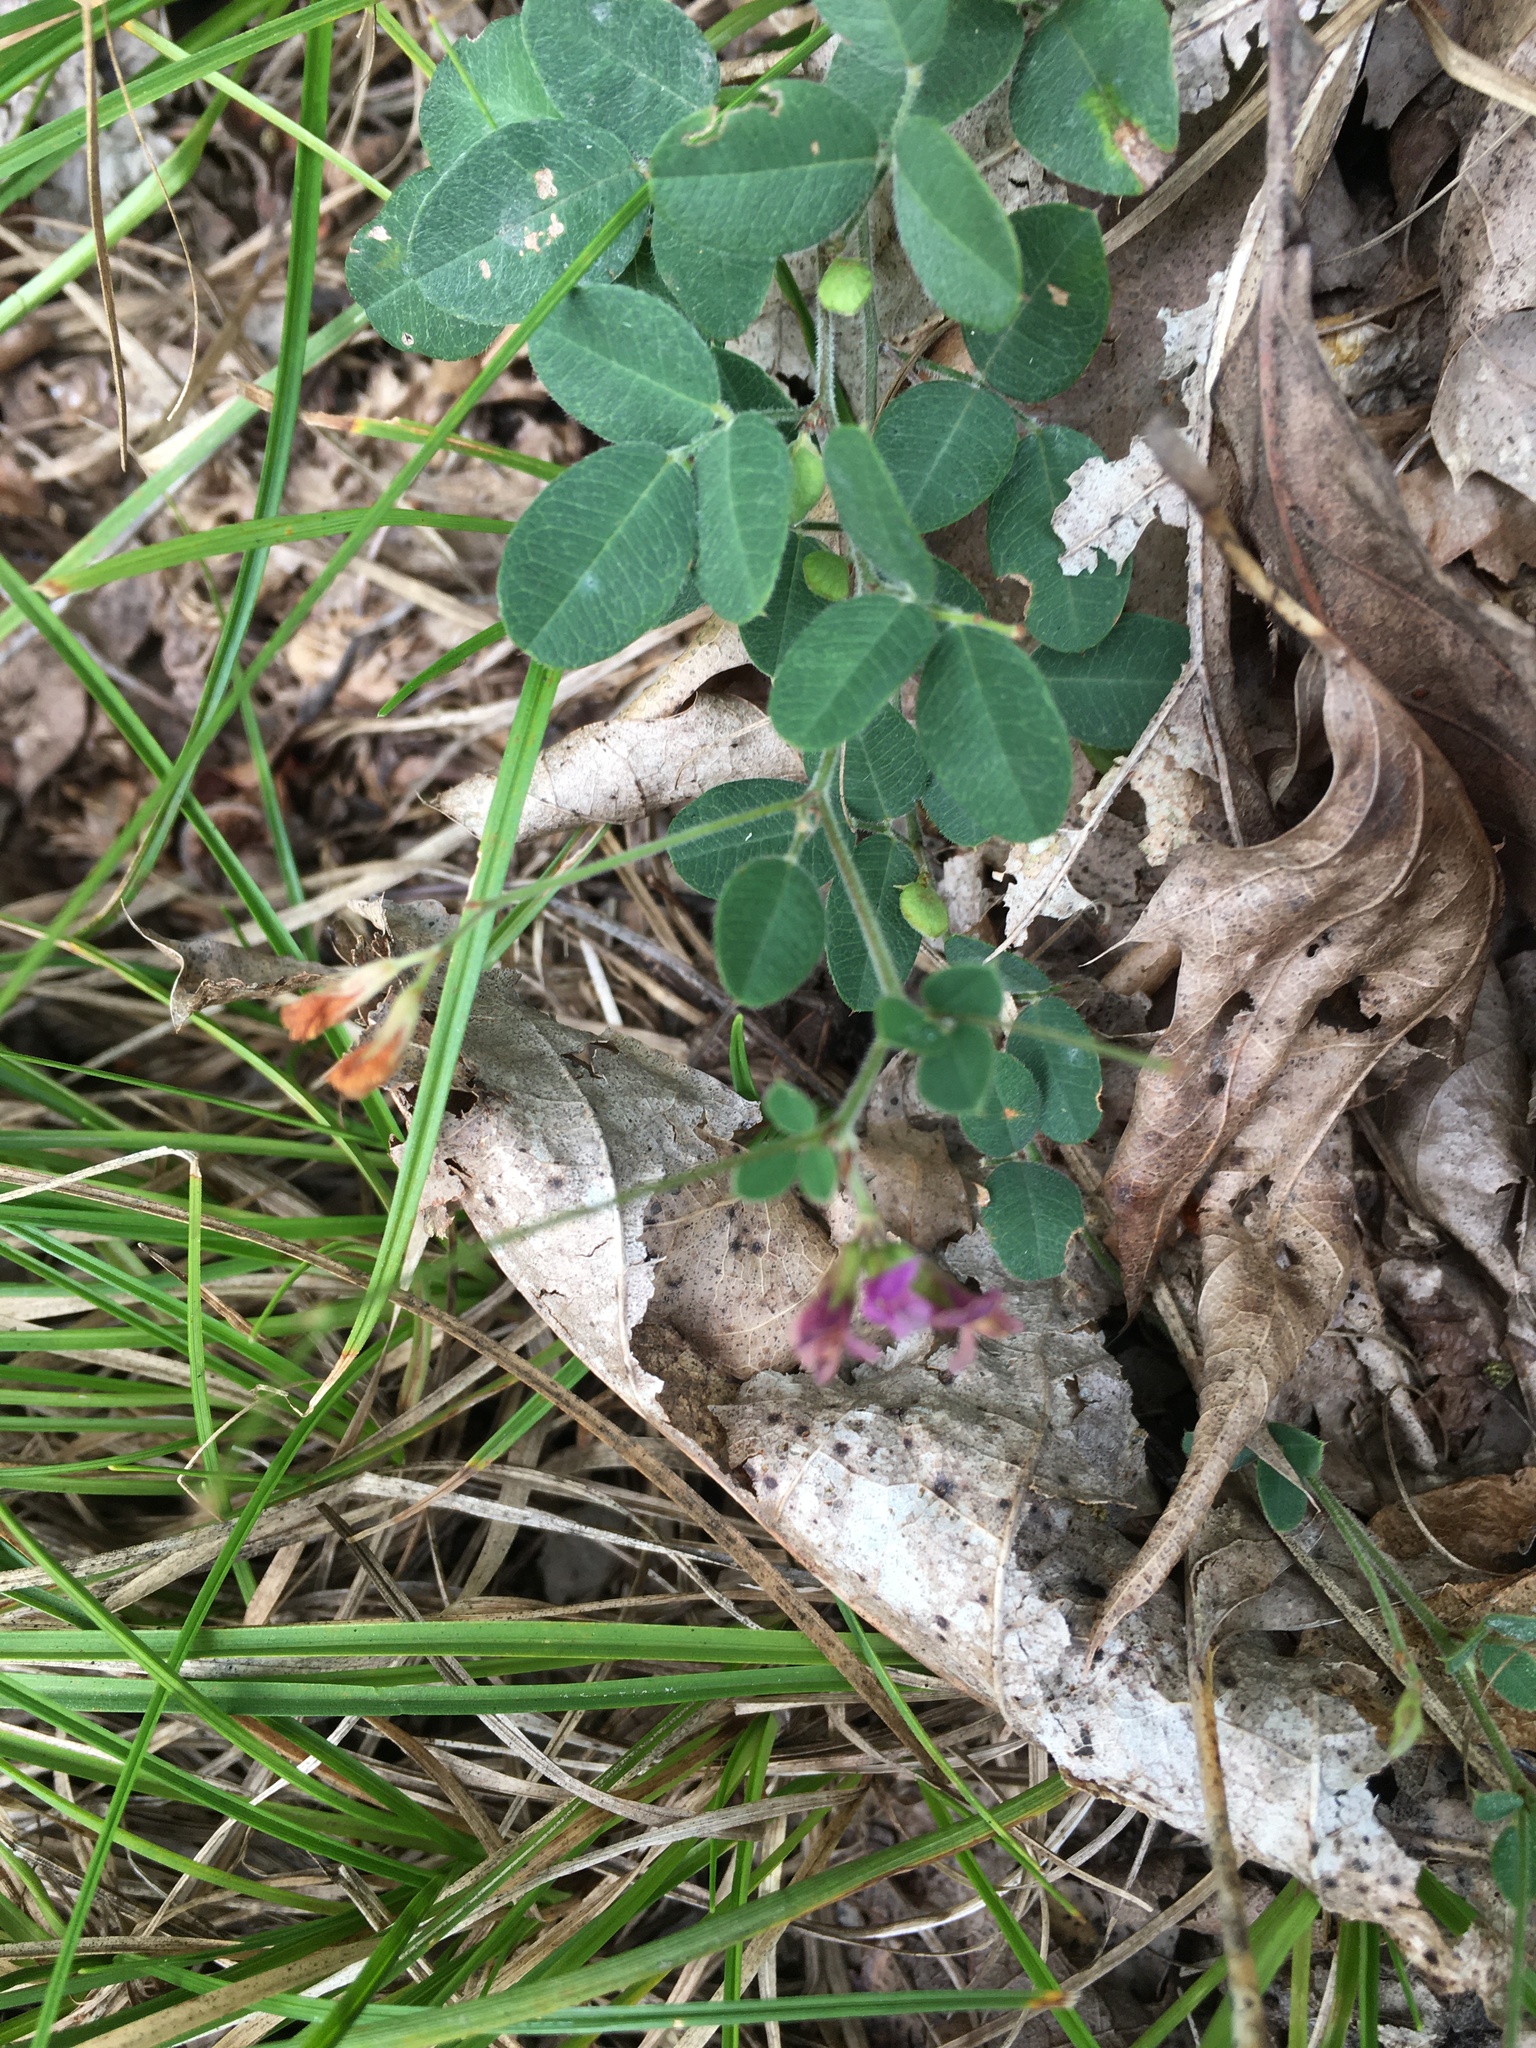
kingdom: Plantae
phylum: Tracheophyta
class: Magnoliopsida
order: Fabales
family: Fabaceae
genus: Lespedeza
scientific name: Lespedeza procumbens
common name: Downy trailing bush-clover
